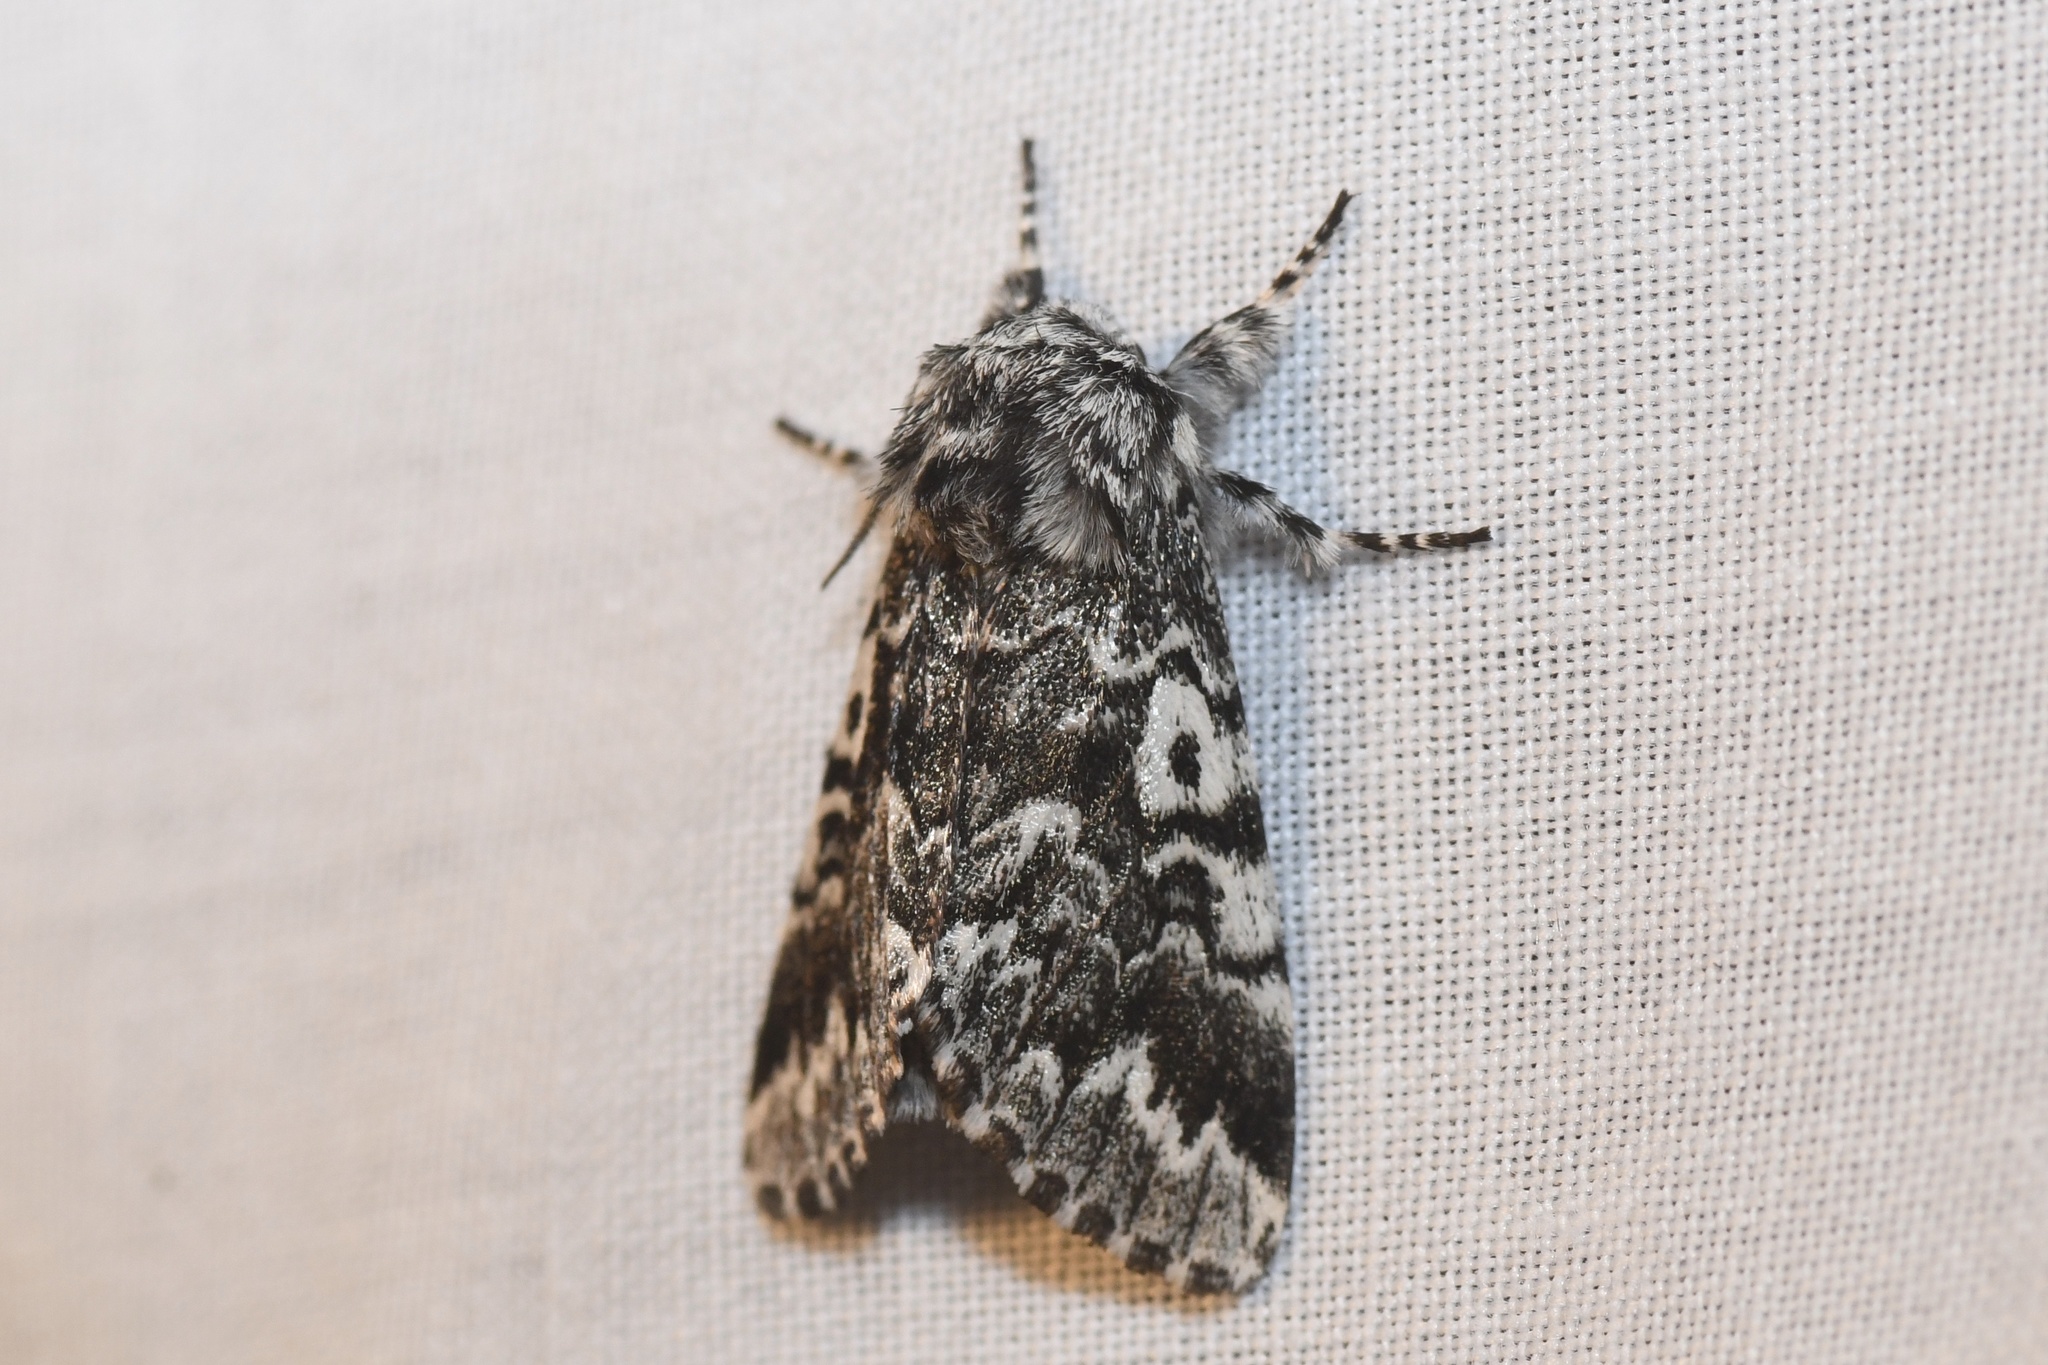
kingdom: Animalia
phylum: Arthropoda
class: Insecta
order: Lepidoptera
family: Noctuidae
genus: Panthea
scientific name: Panthea acronyctoides
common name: Black zigzag moth
